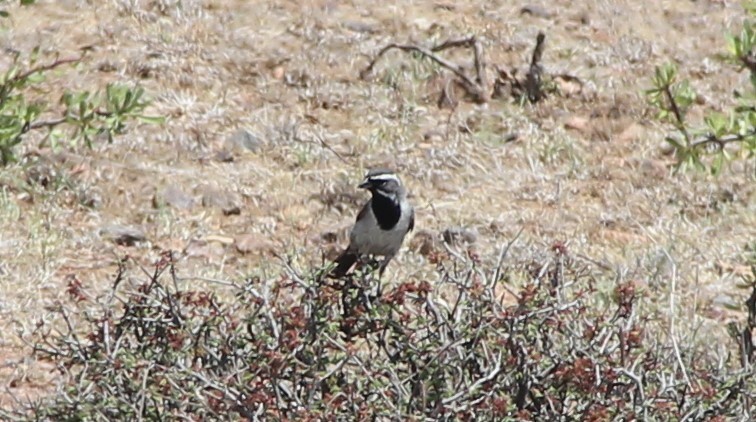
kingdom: Animalia
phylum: Chordata
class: Aves
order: Passeriformes
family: Passerellidae
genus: Amphispiza
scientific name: Amphispiza bilineata
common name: Black-throated sparrow
